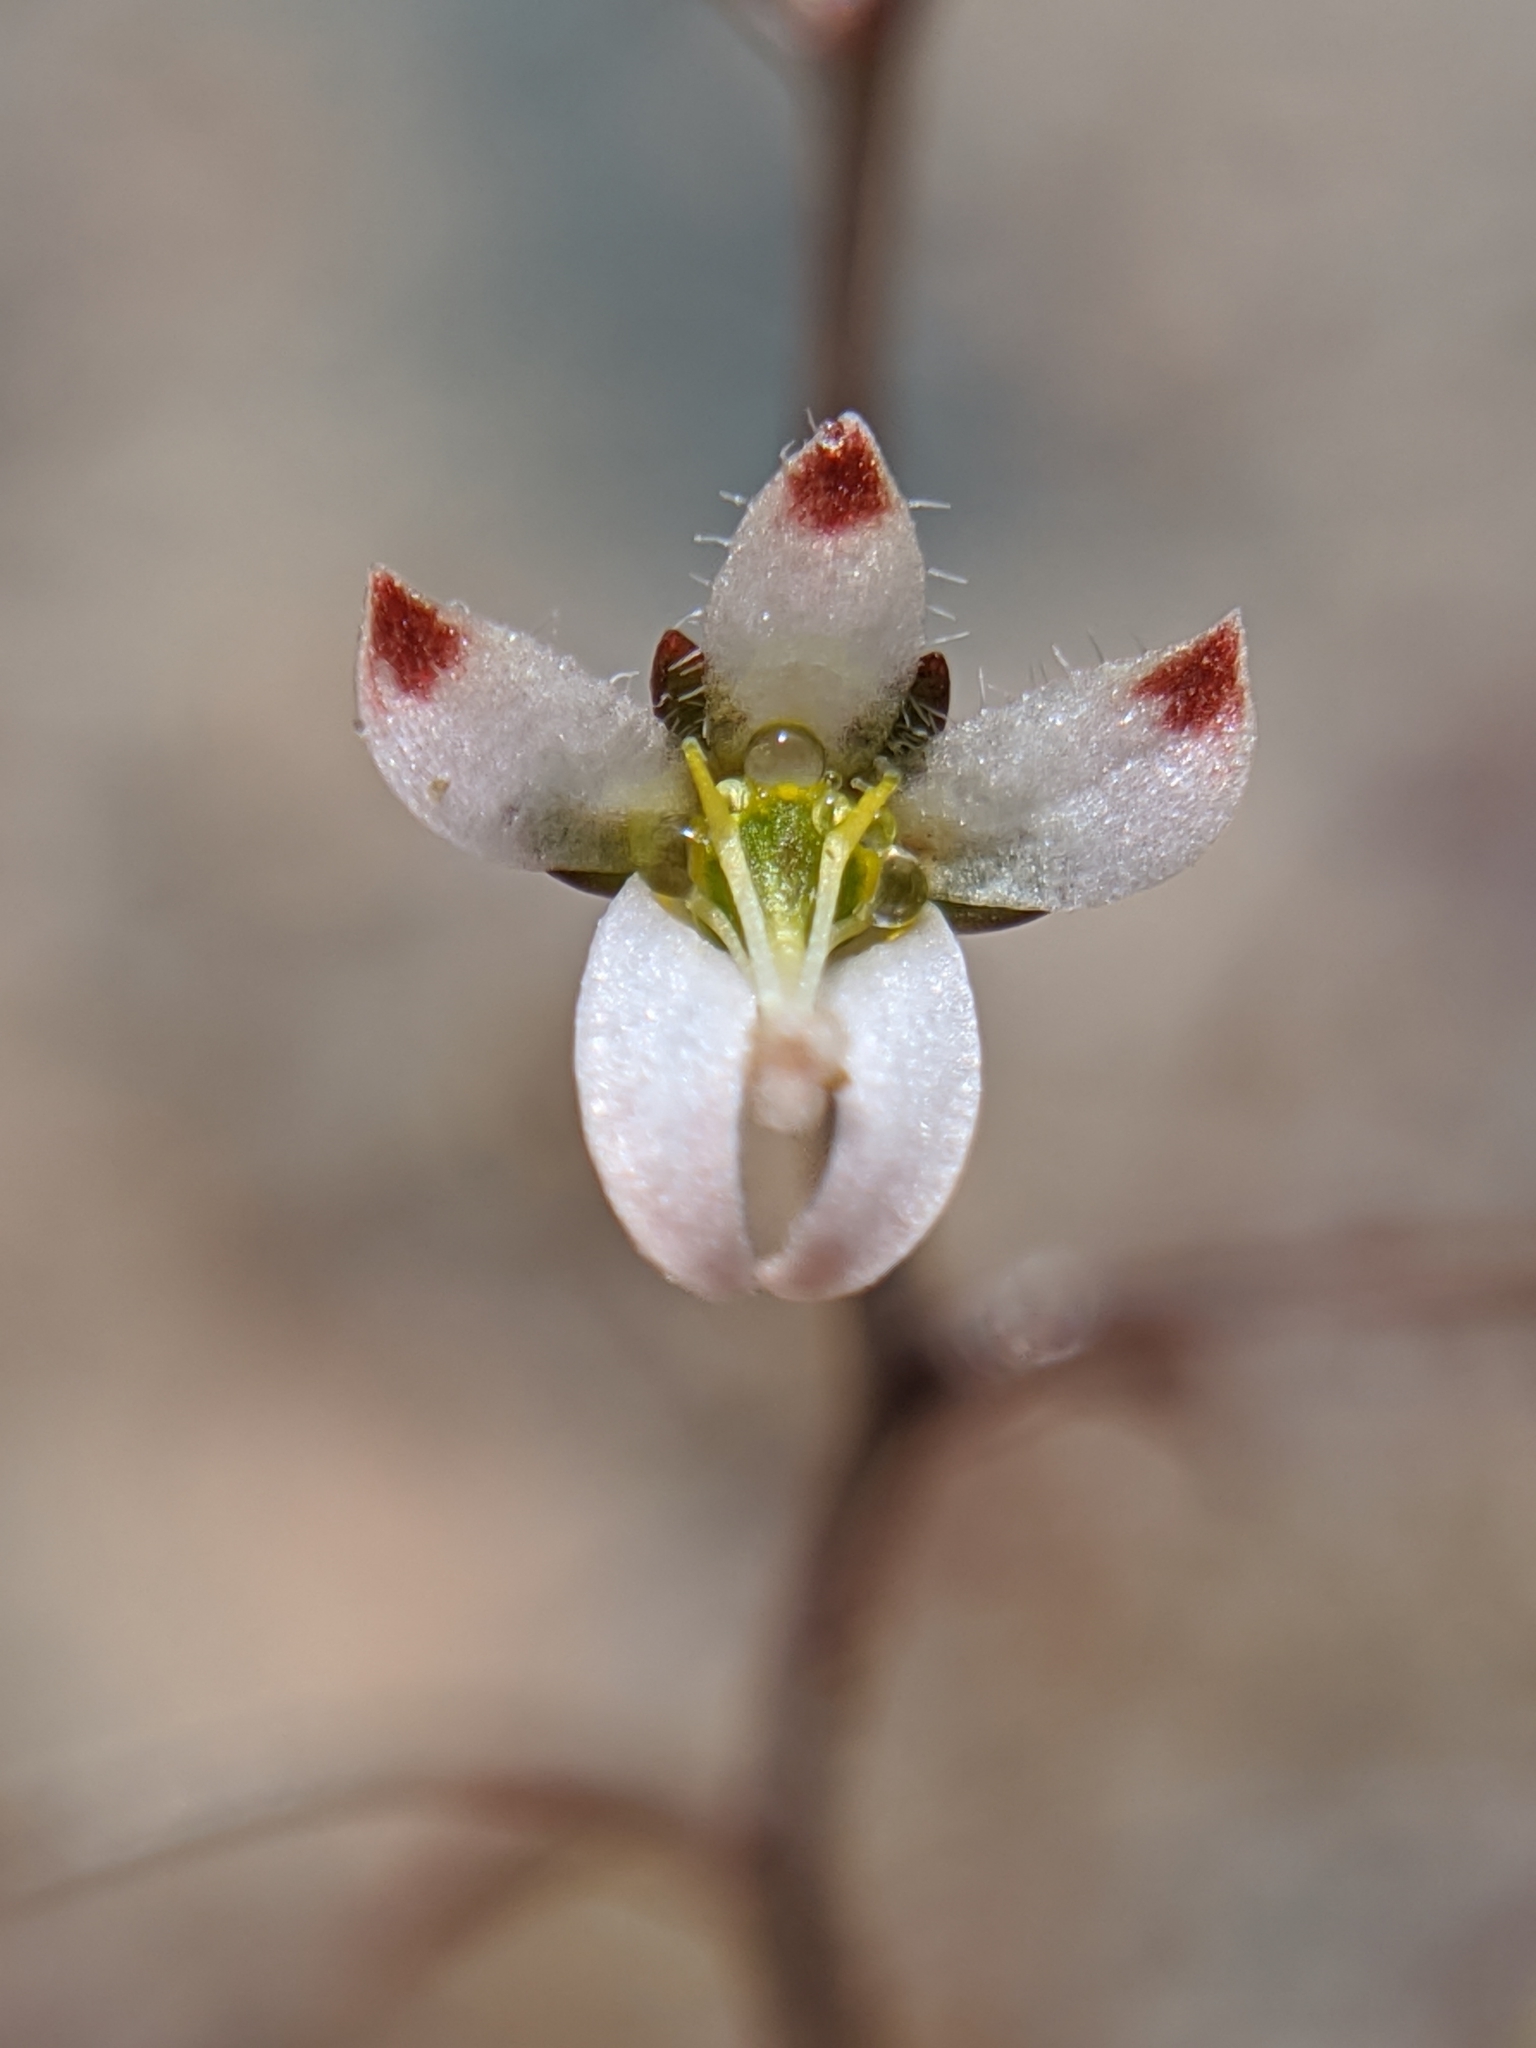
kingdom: Plantae
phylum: Tracheophyta
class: Magnoliopsida
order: Asterales
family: Campanulaceae
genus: Nemacladus
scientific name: Nemacladus orientalis
